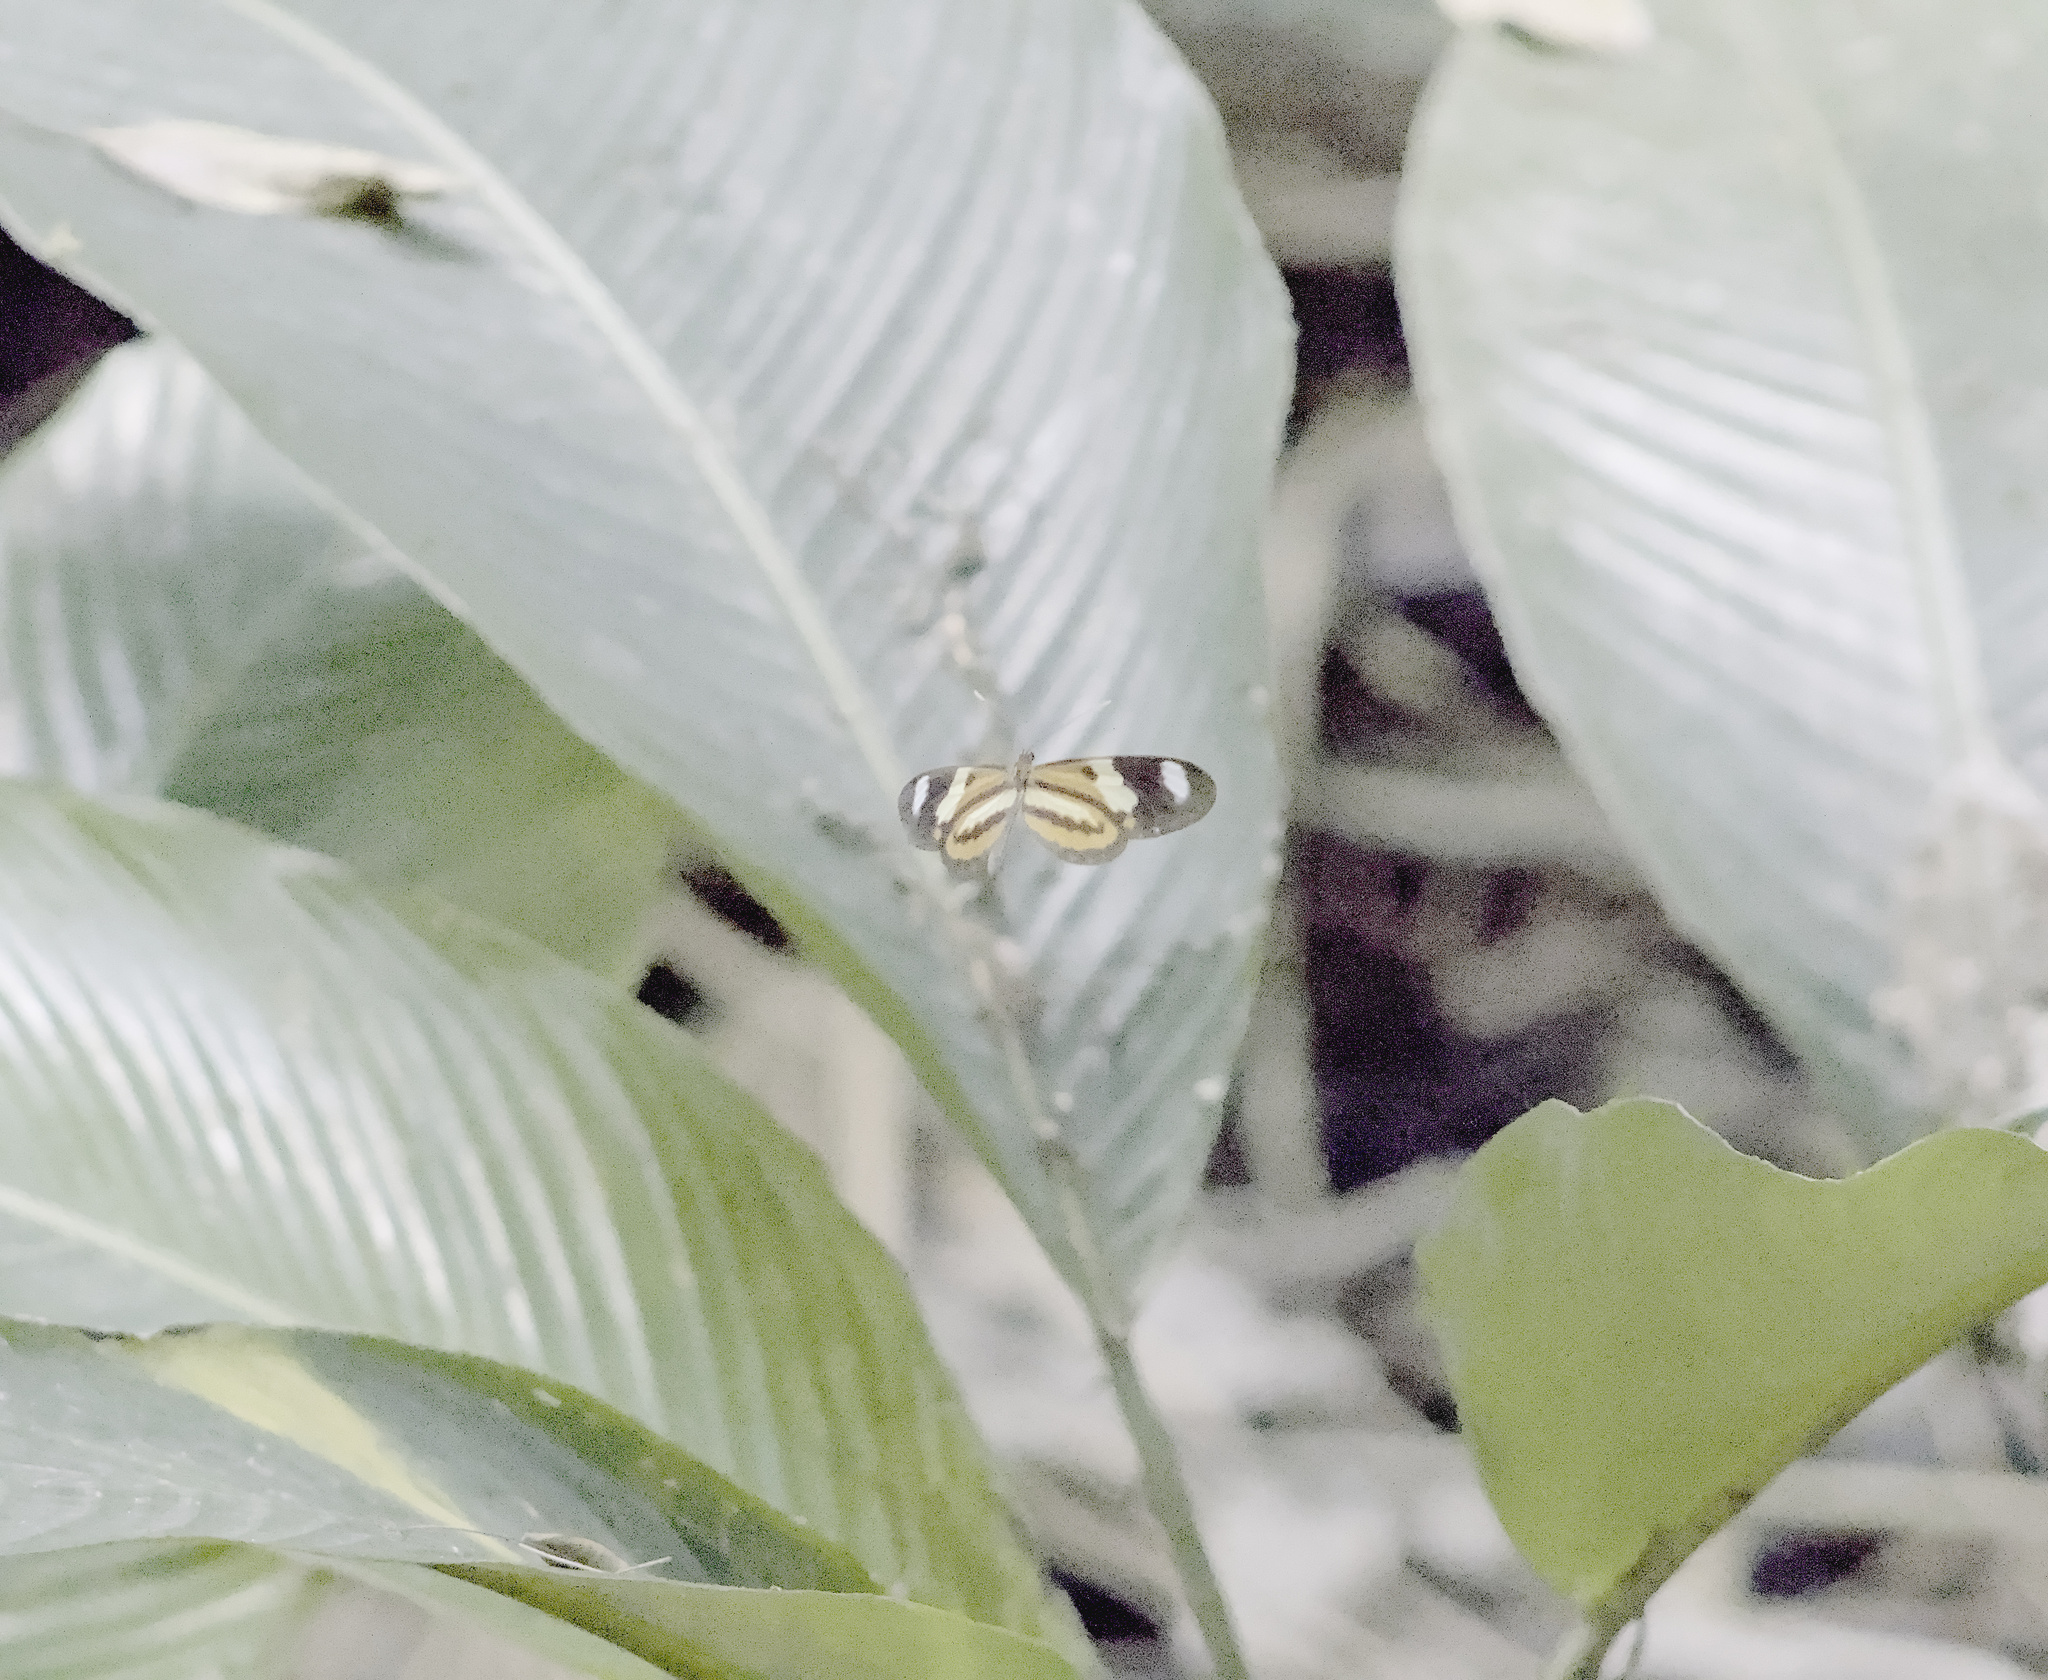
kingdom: Animalia
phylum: Arthropoda
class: Insecta
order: Lepidoptera
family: Nymphalidae
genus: Mechanitis
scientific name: Mechanitis lysimnia
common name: Lysimnia tigerwing
